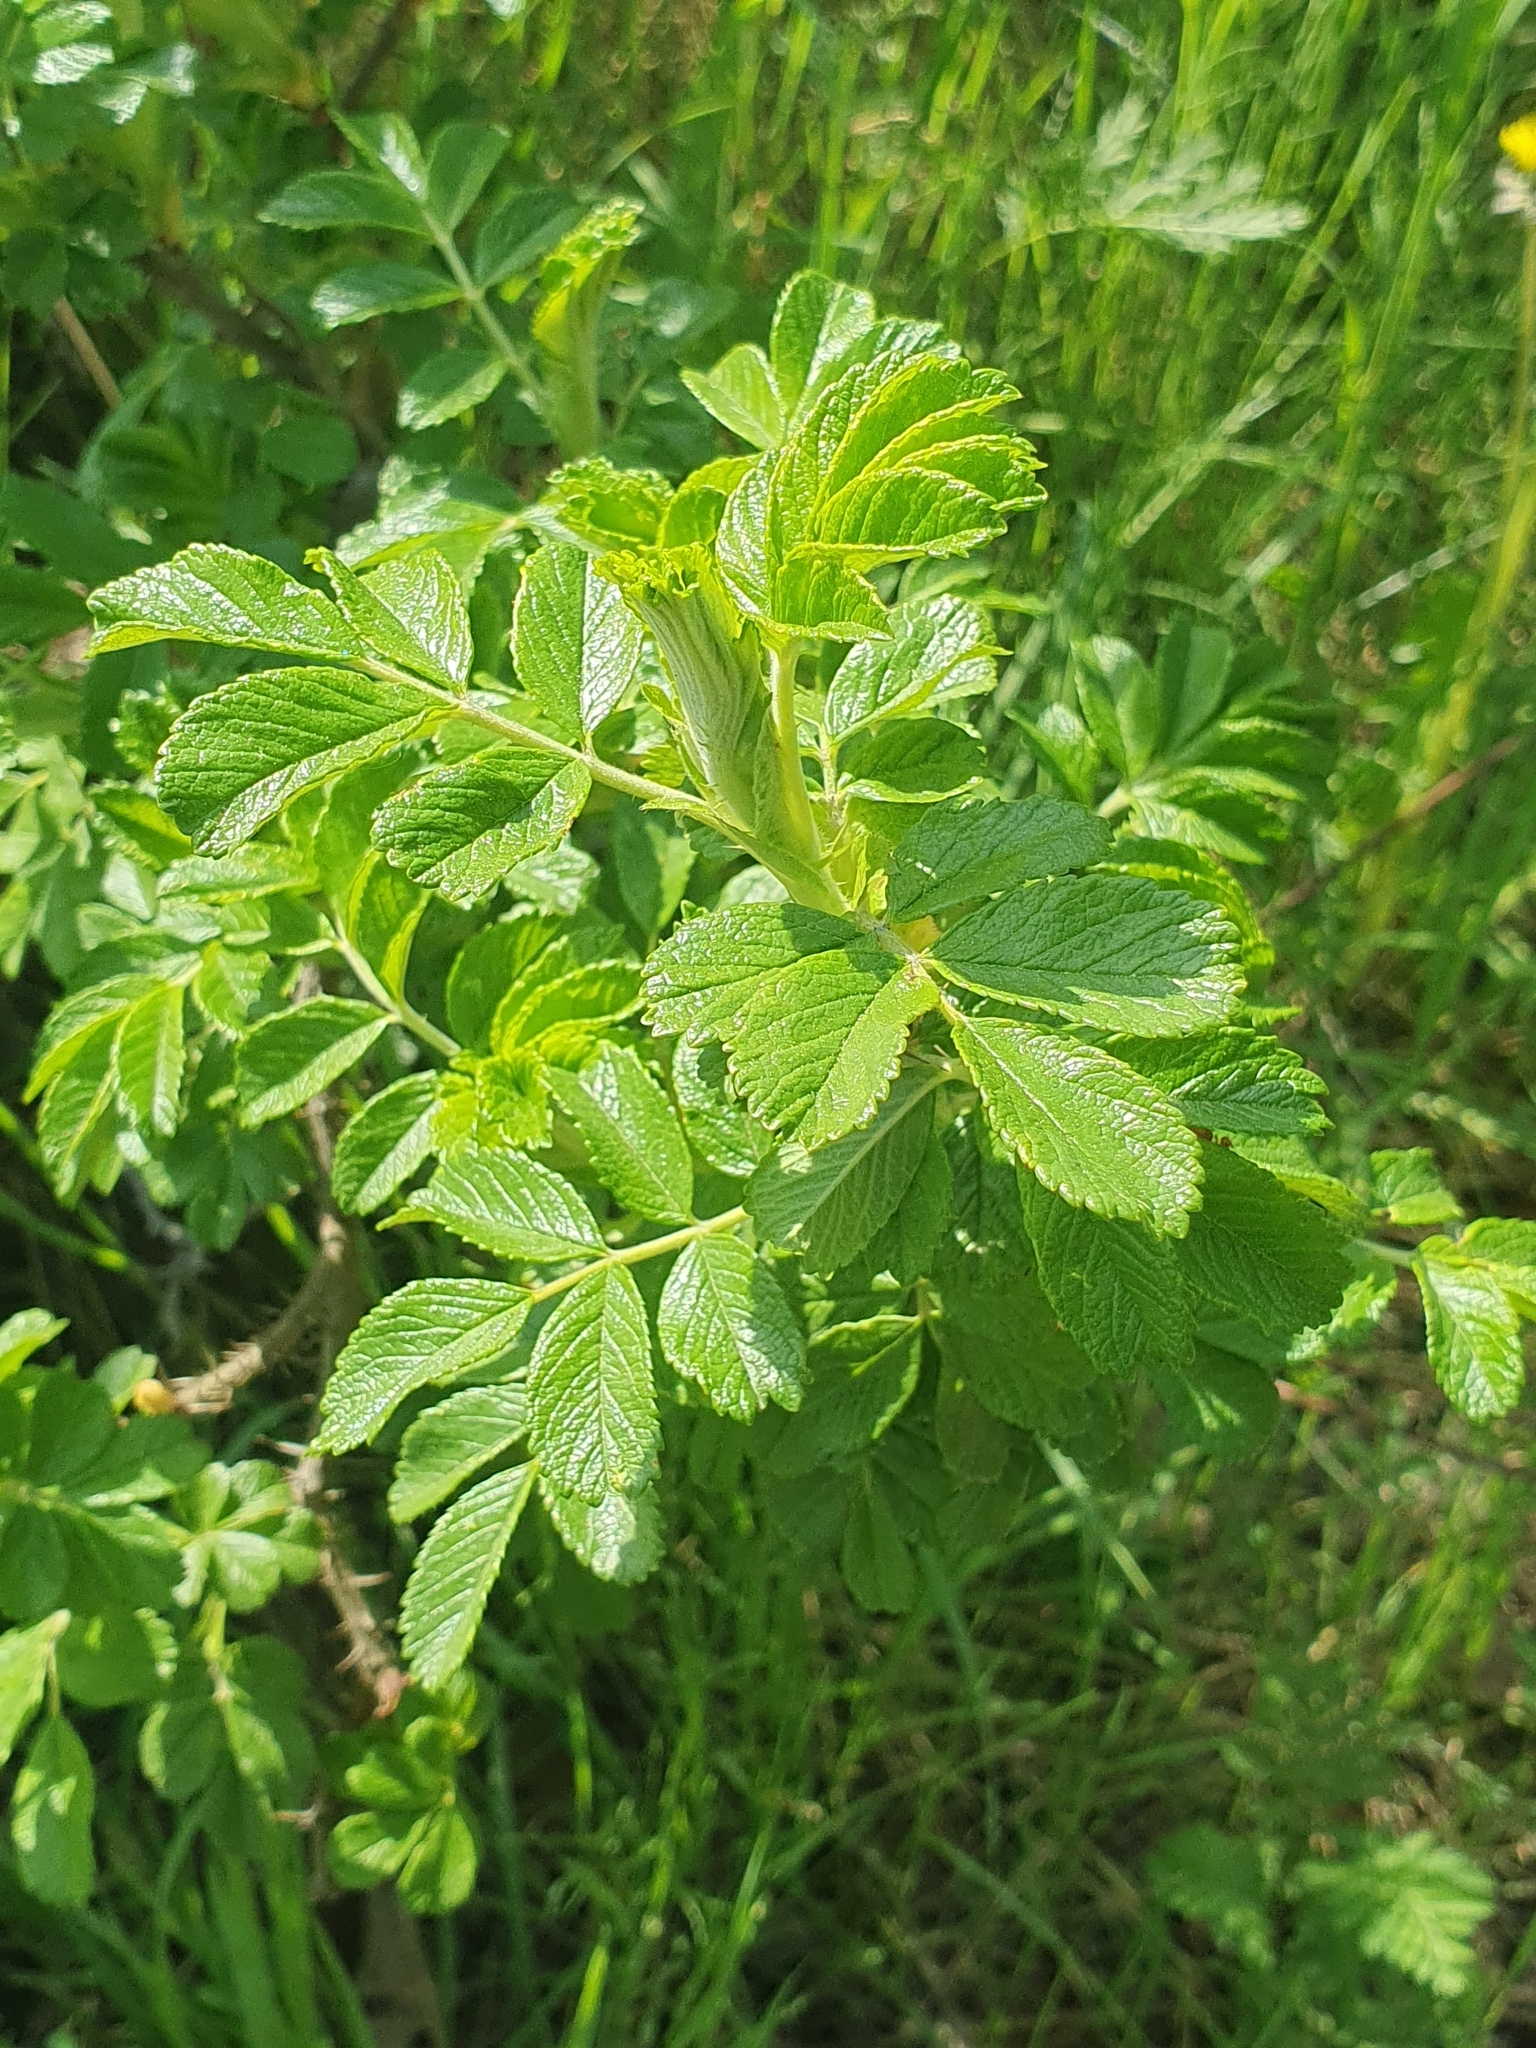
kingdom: Plantae
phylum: Tracheophyta
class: Magnoliopsida
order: Rosales
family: Rosaceae
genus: Rosa
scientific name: Rosa rugosa
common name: Japanese rose
